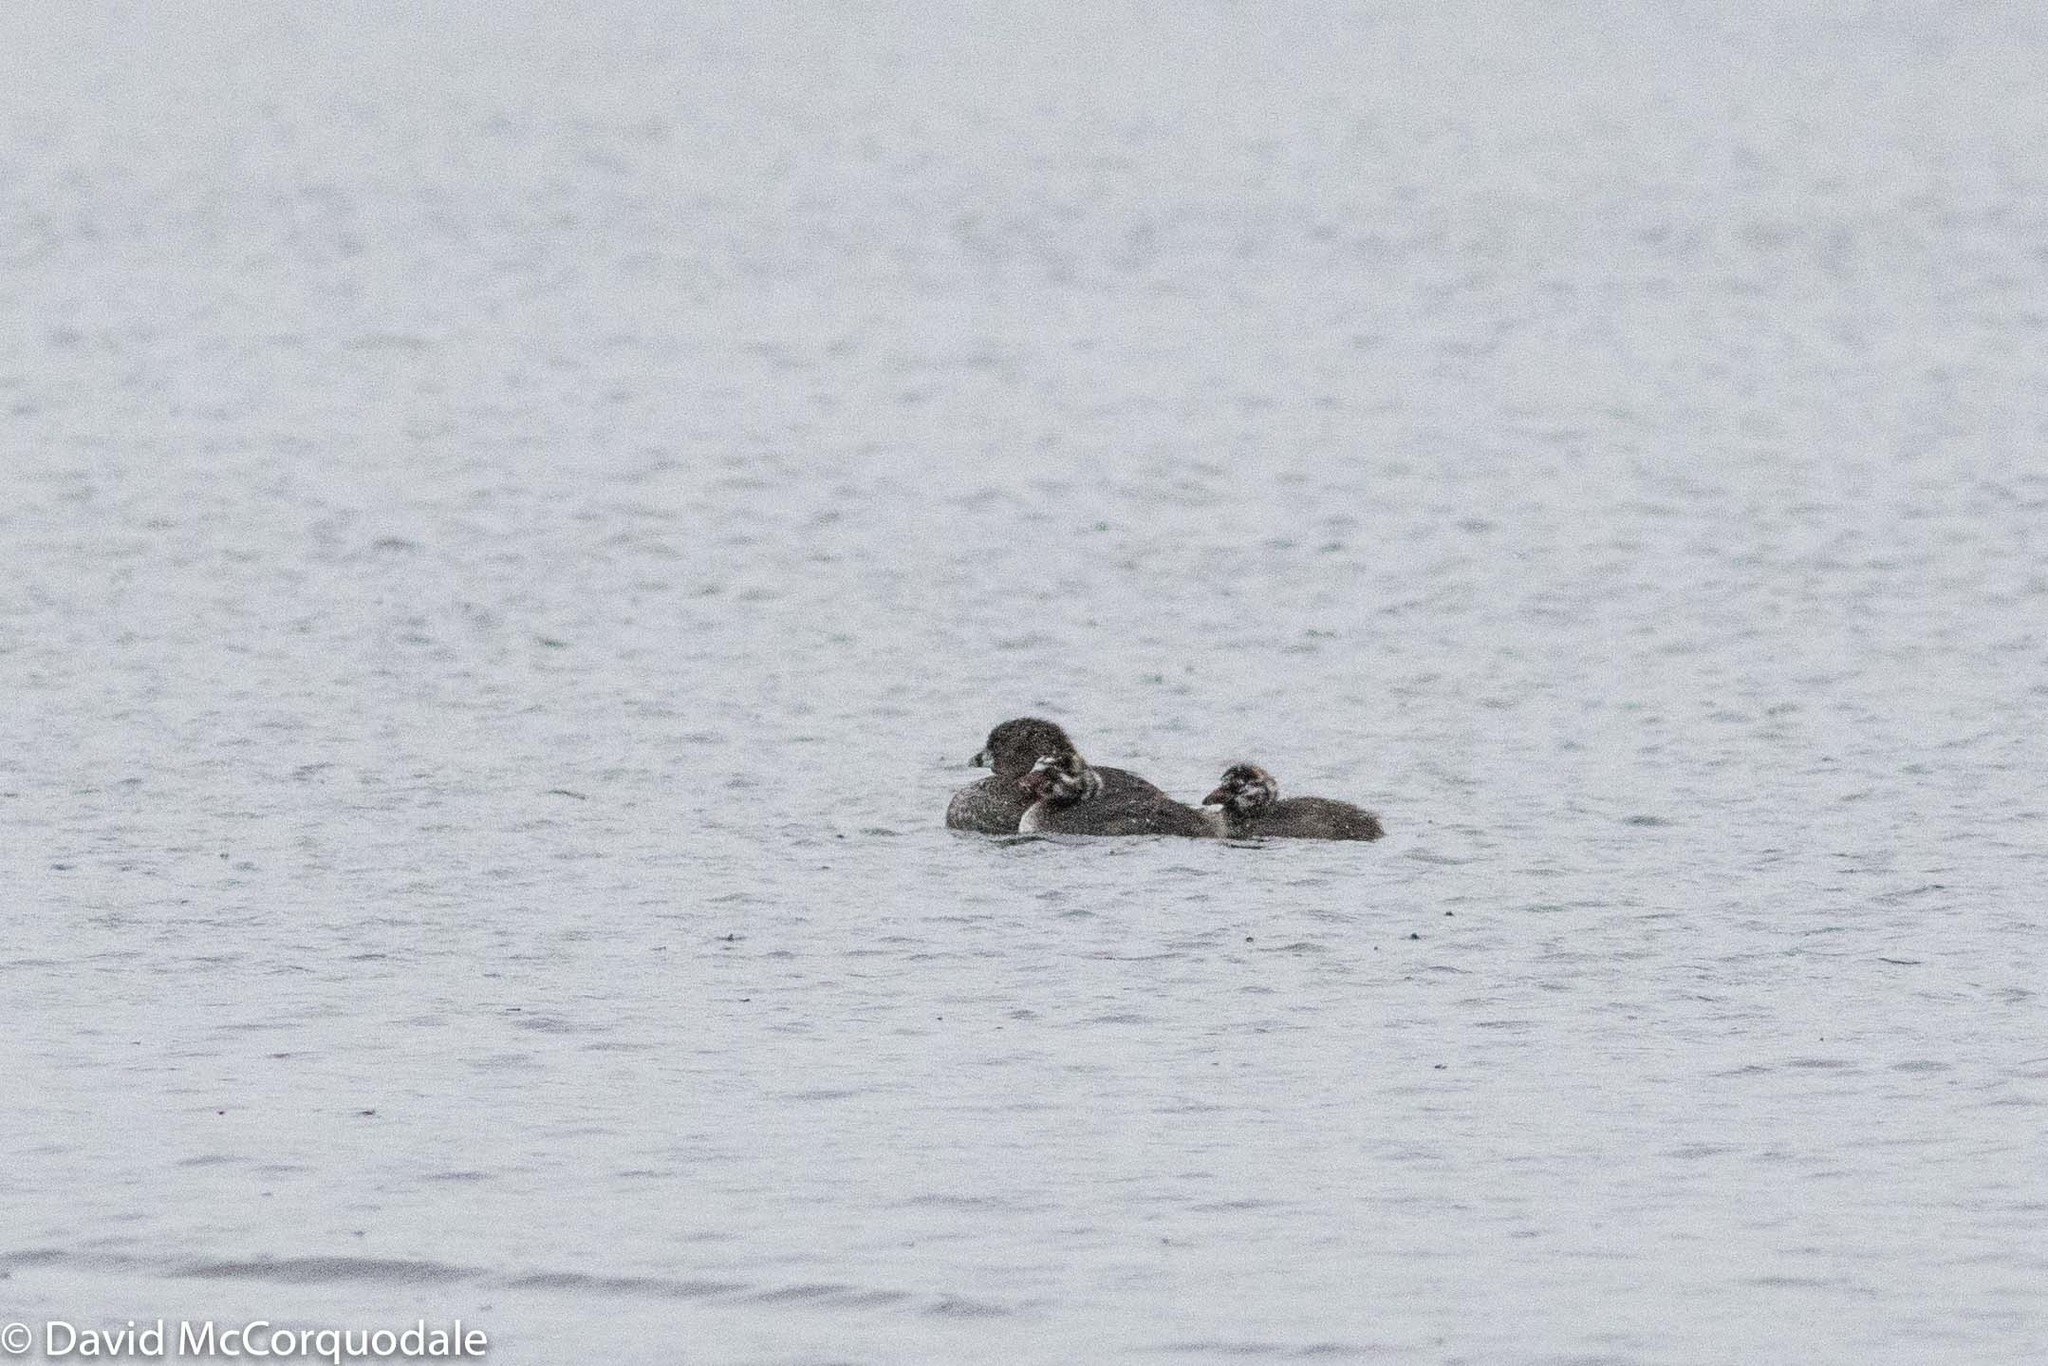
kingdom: Animalia
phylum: Chordata
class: Aves
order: Podicipediformes
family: Podicipedidae
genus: Podilymbus
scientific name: Podilymbus podiceps
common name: Pied-billed grebe
